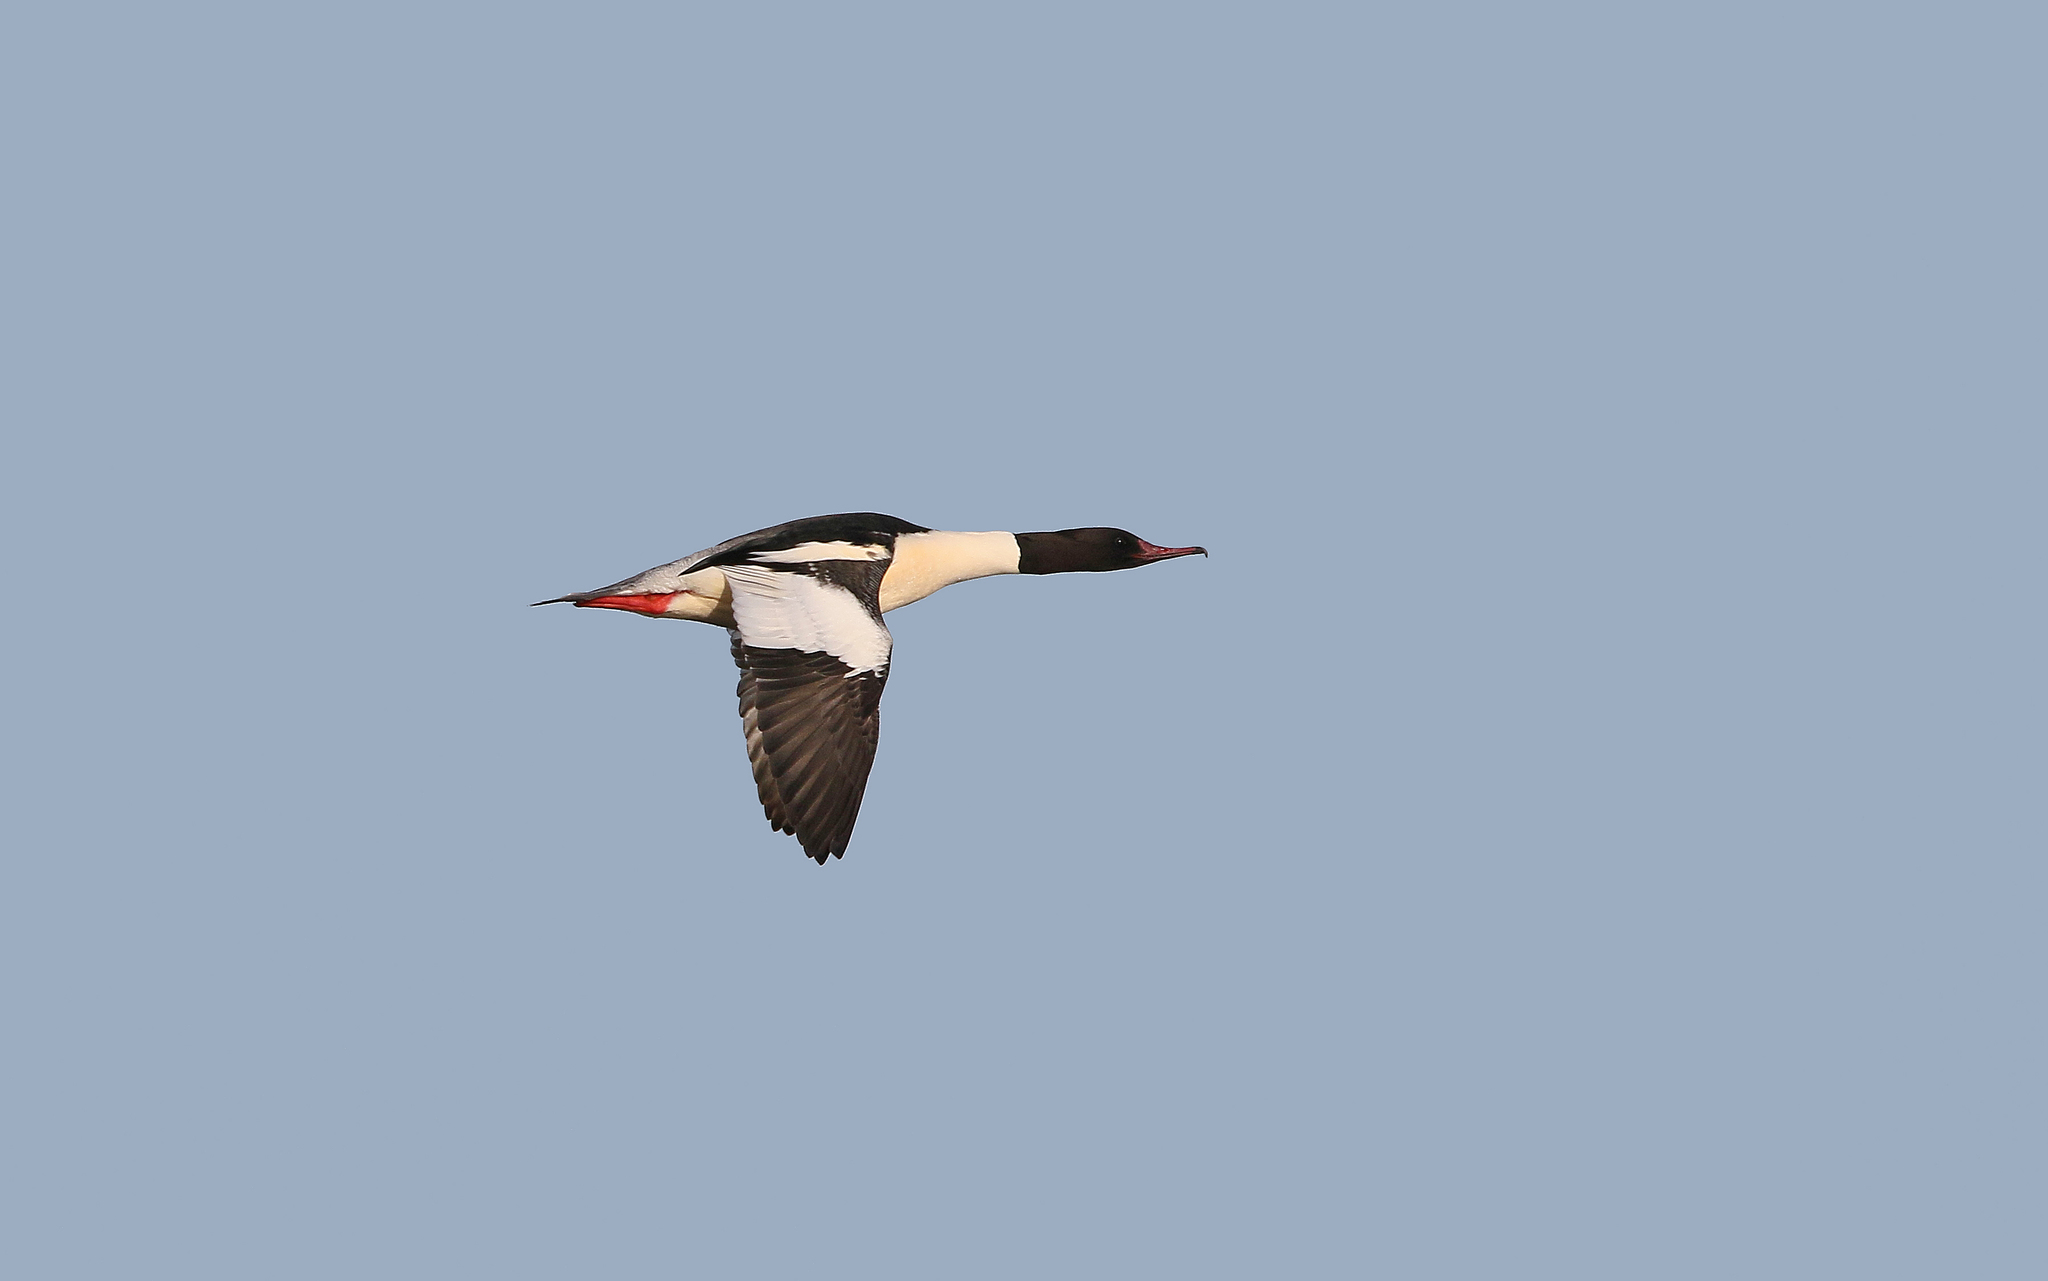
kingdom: Animalia
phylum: Chordata
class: Aves
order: Anseriformes
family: Anatidae
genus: Mergus
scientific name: Mergus merganser
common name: Common merganser
